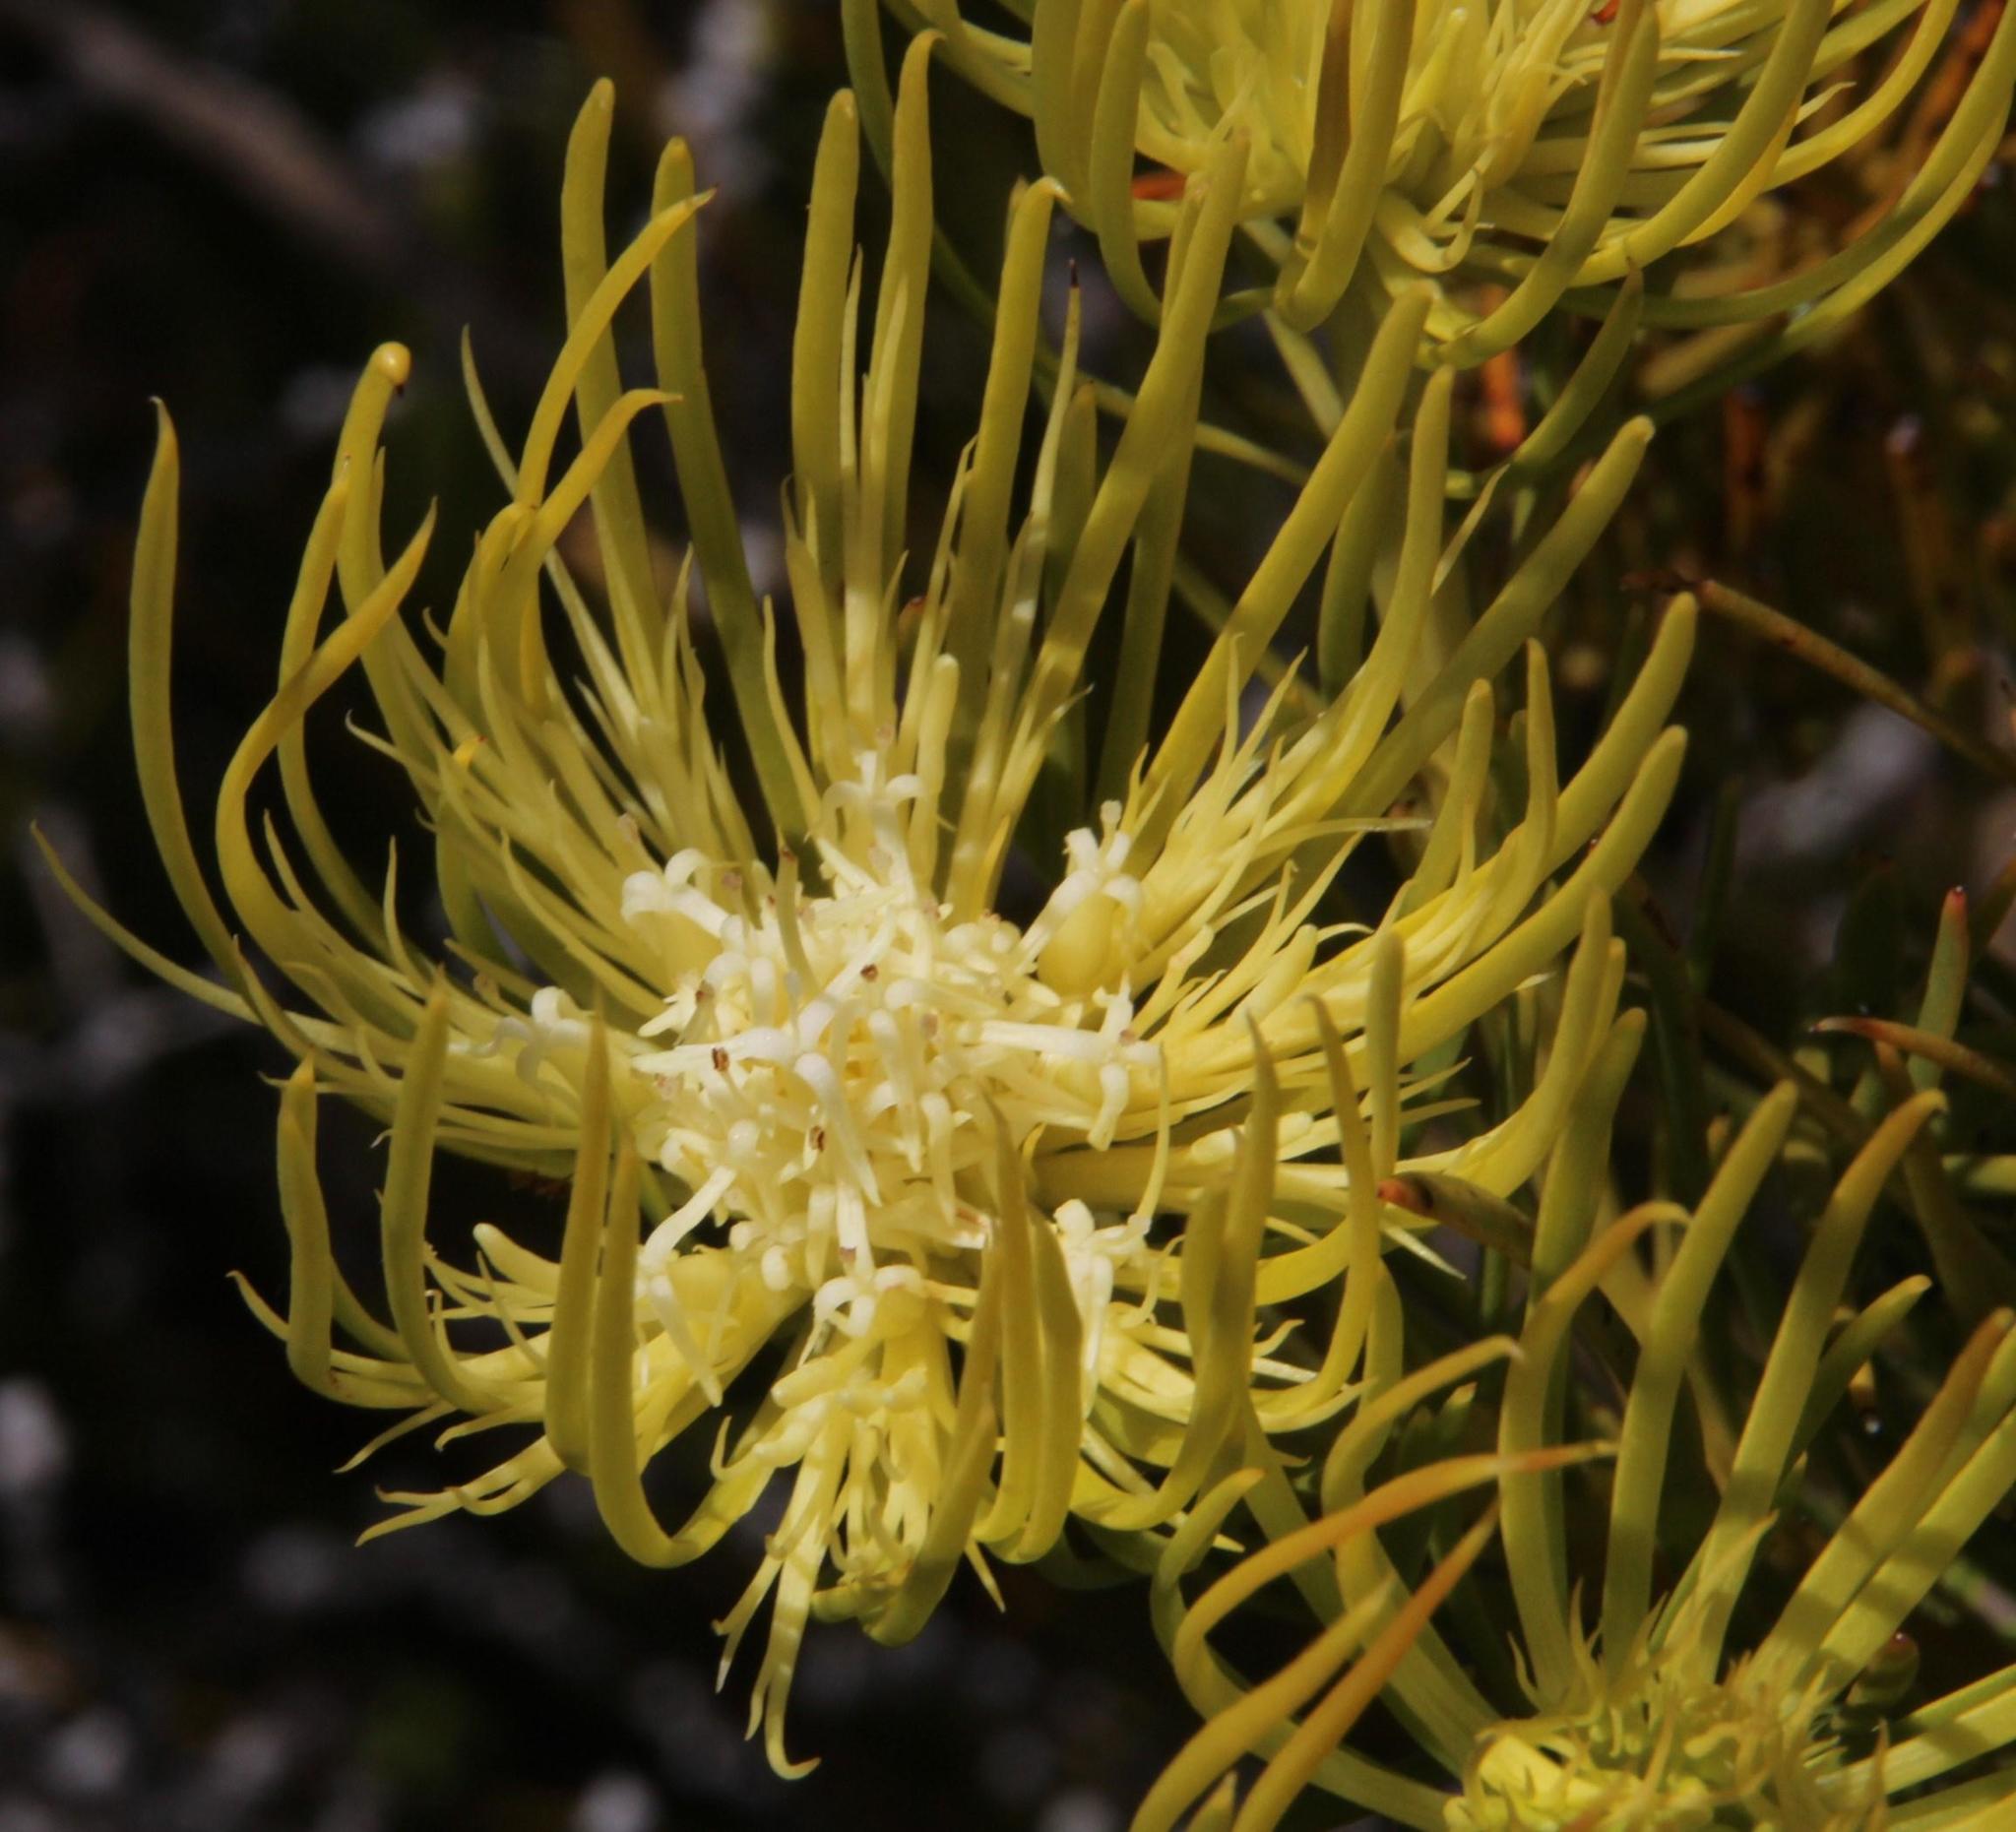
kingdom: Plantae
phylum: Tracheophyta
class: Magnoliopsida
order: Proteales
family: Proteaceae
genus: Aulax
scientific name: Aulax pallasia
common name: Needle-leaf featherbush
